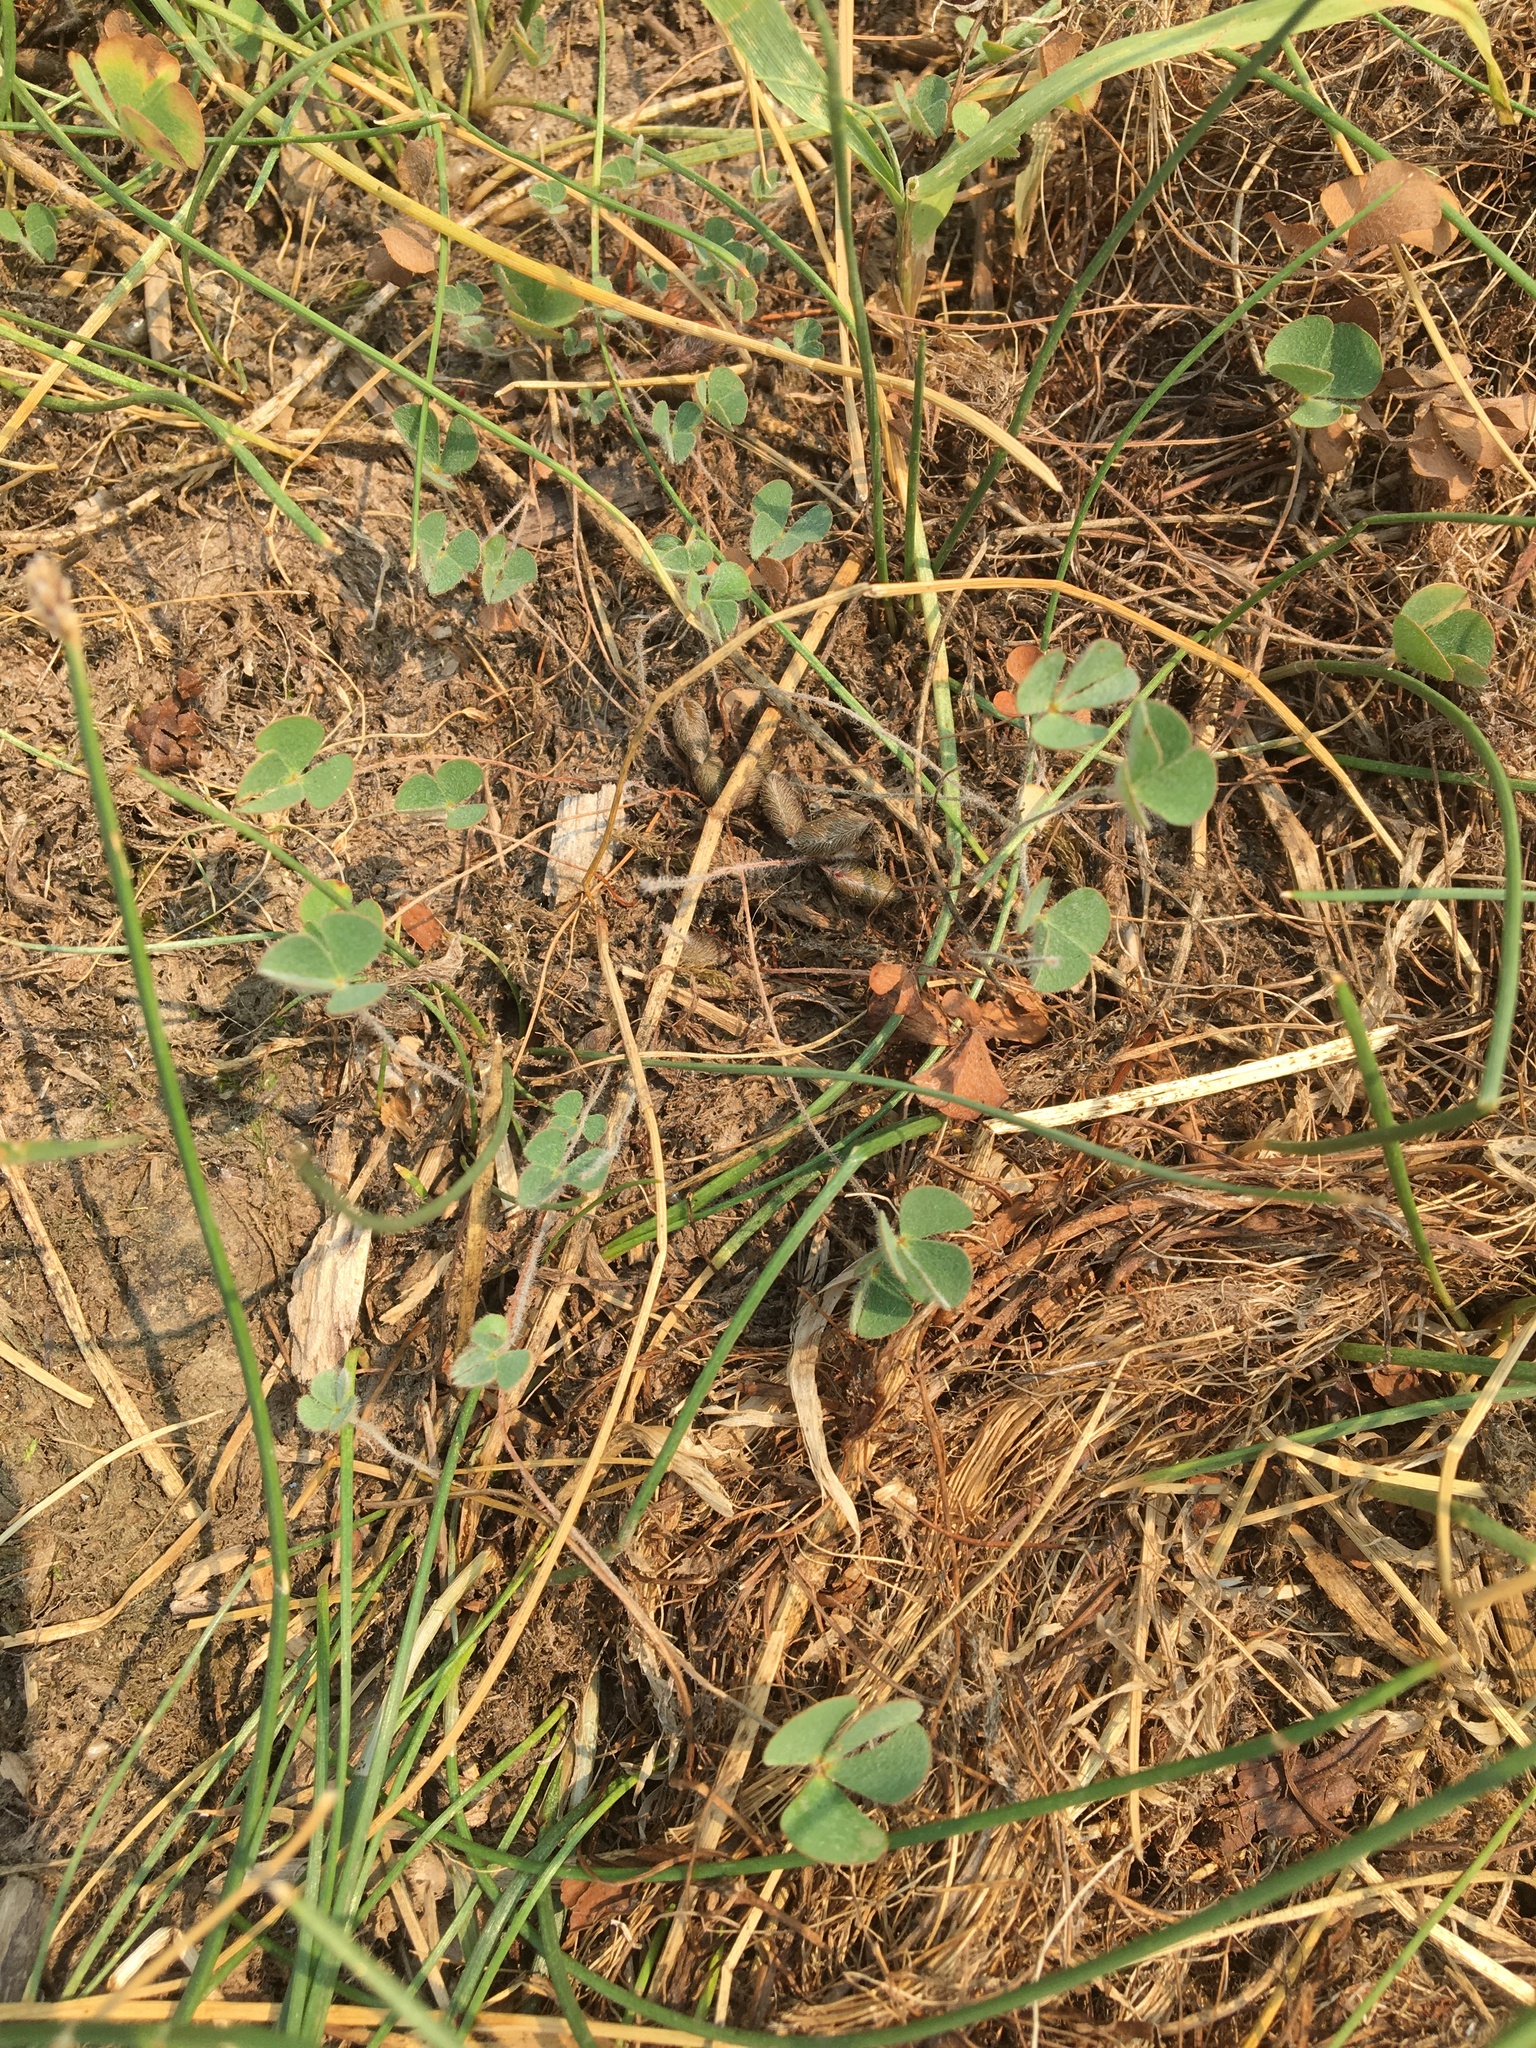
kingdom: Plantae
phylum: Tracheophyta
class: Polypodiopsida
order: Salviniales
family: Marsileaceae
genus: Marsilea
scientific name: Marsilea vestita
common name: Hooked-pepperwort
